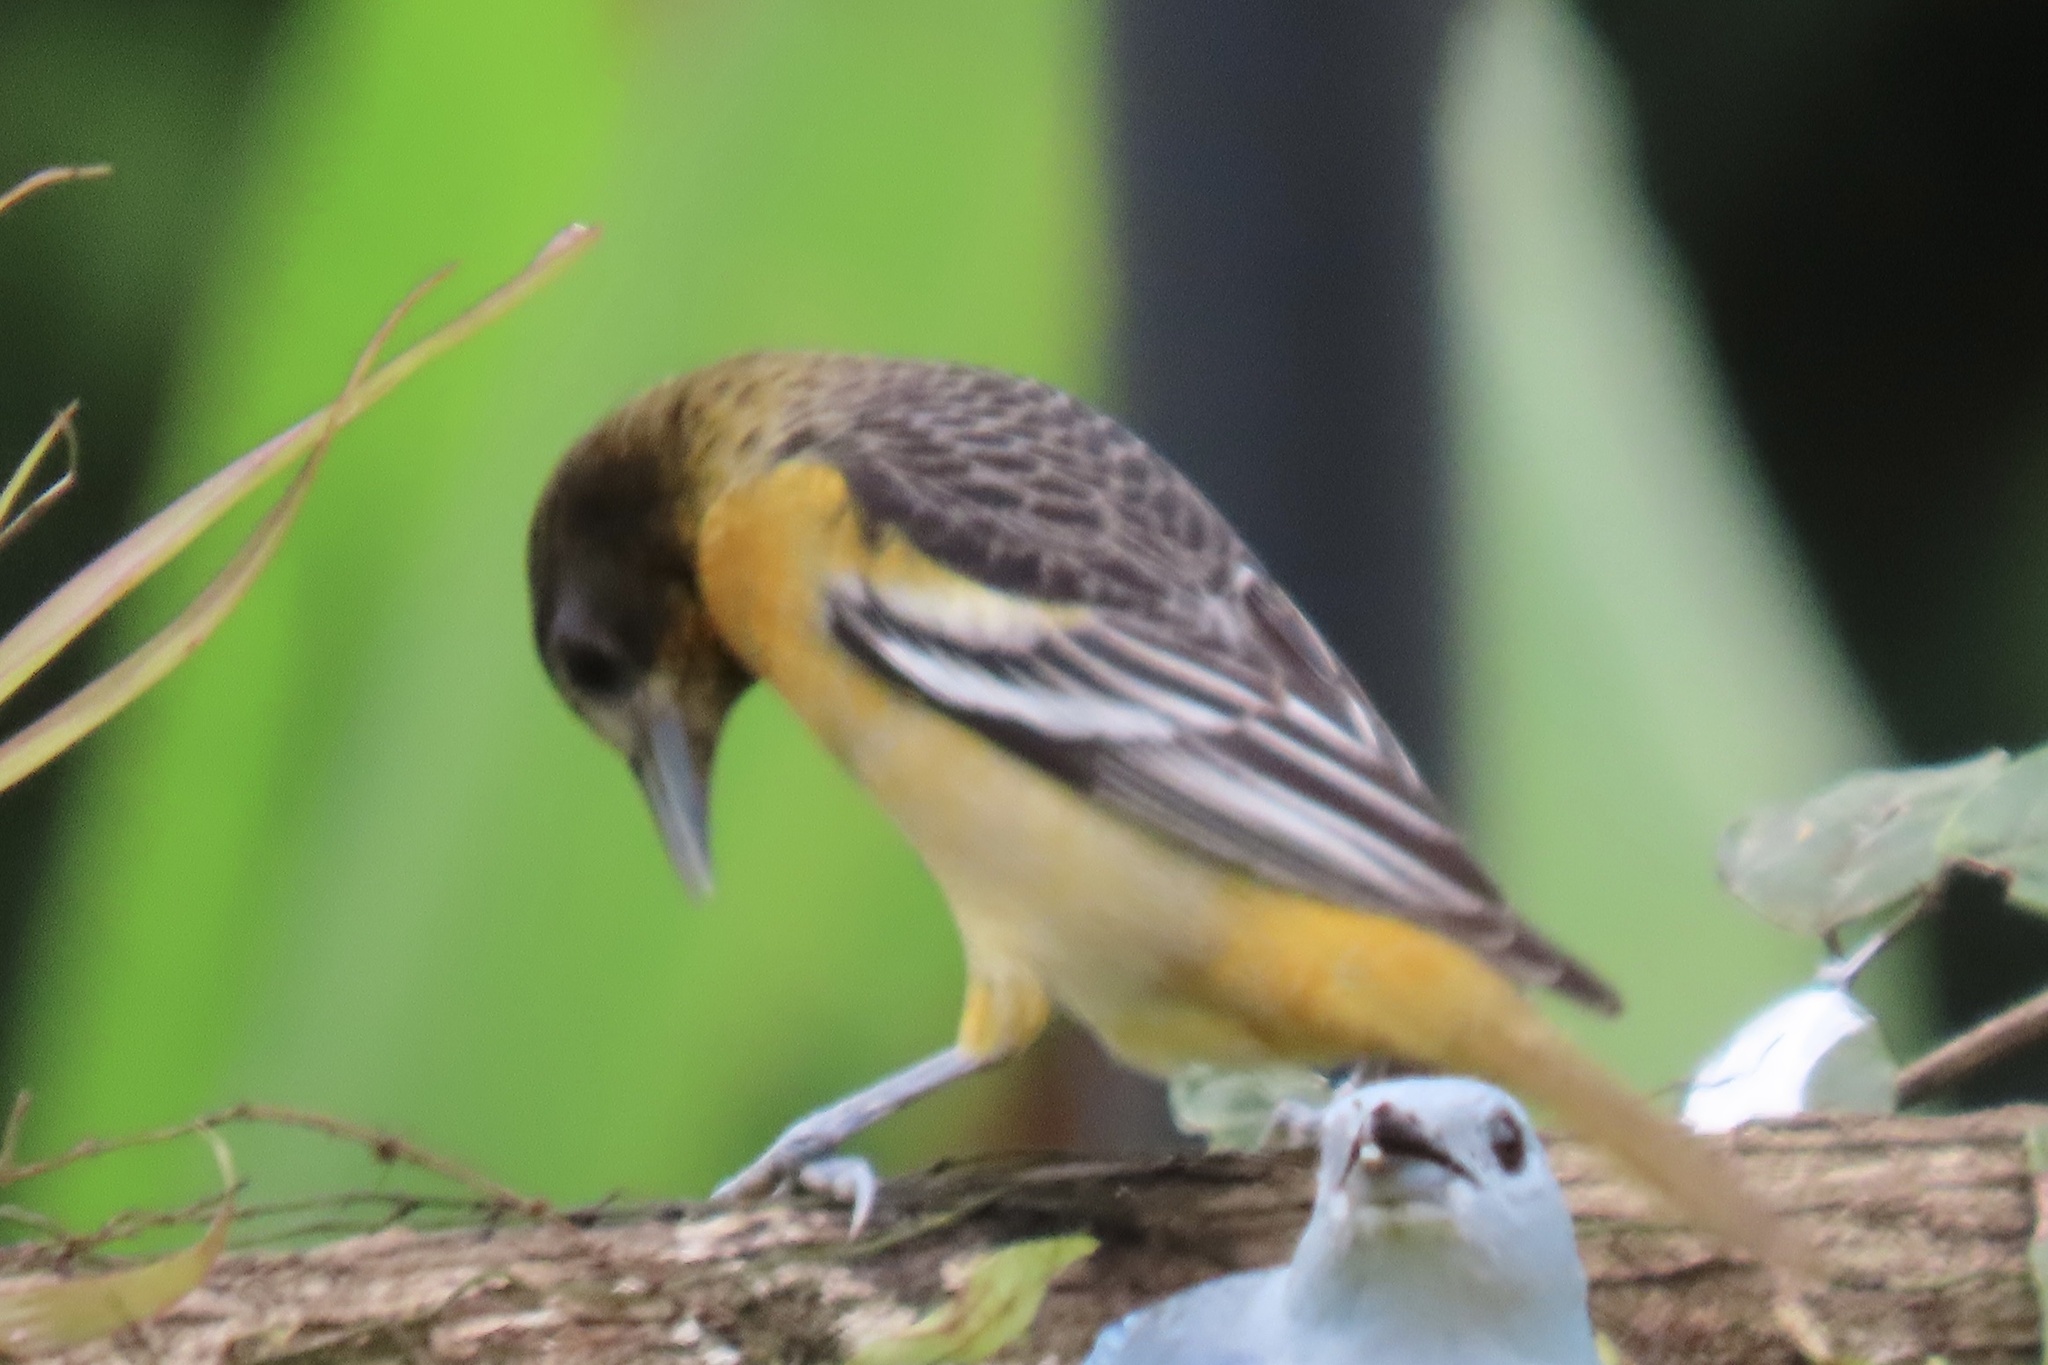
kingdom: Animalia
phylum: Chordata
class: Aves
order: Passeriformes
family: Icteridae
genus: Icterus
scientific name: Icterus galbula
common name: Baltimore oriole
